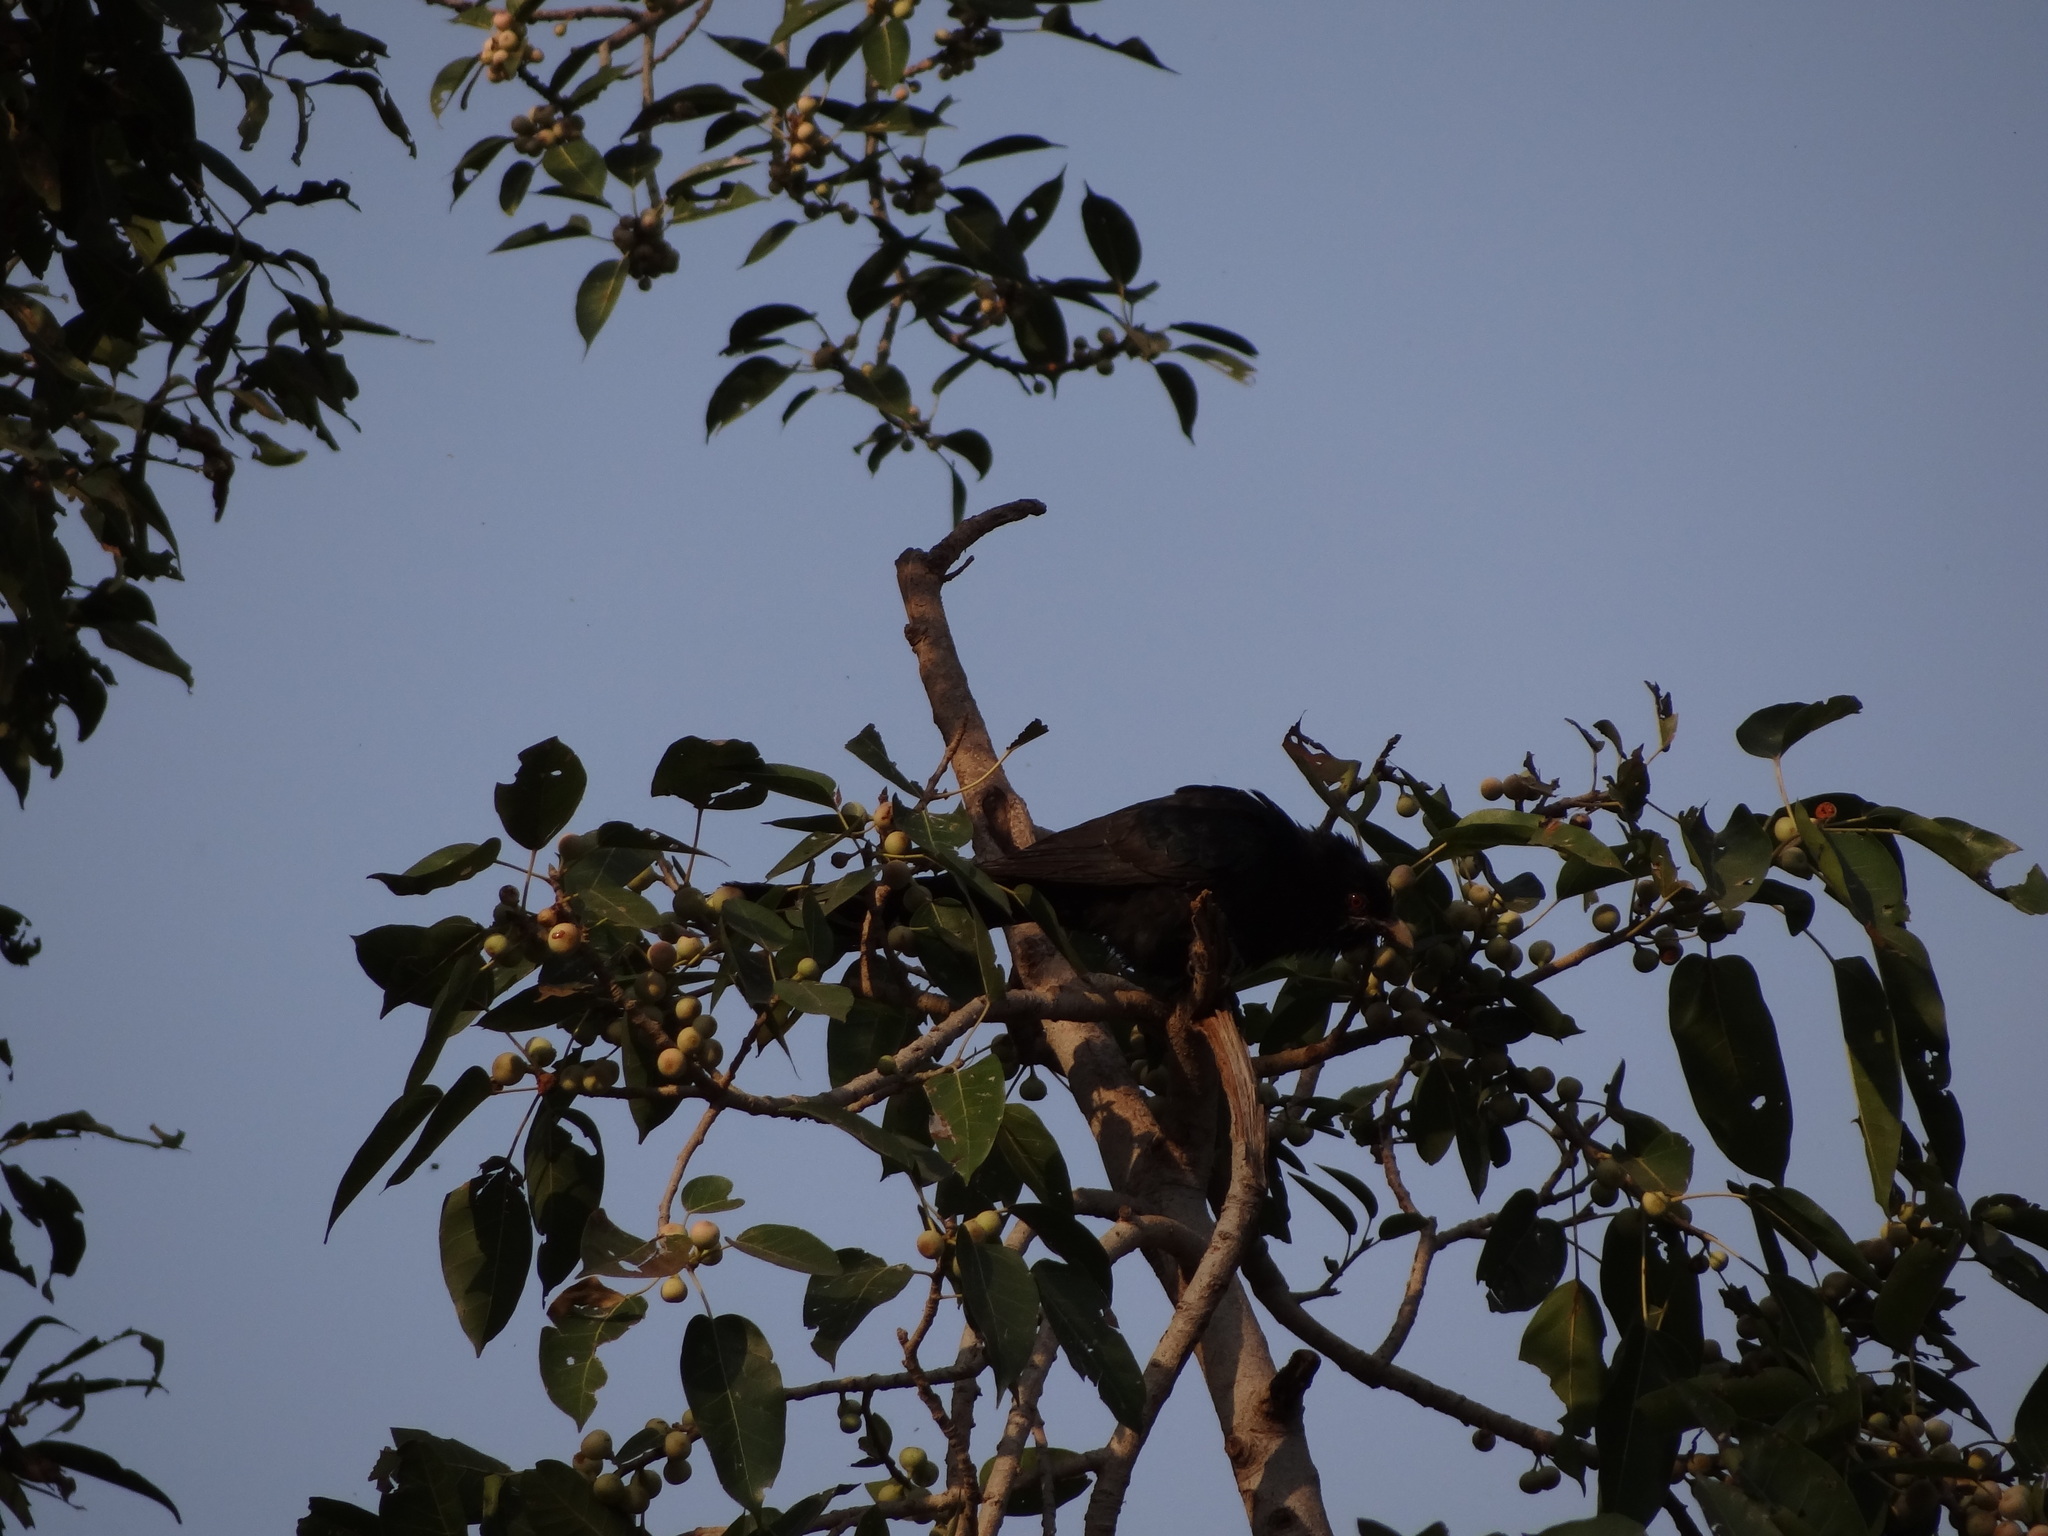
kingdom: Animalia
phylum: Chordata
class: Aves
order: Cuculiformes
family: Cuculidae
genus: Eudynamys
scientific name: Eudynamys scolopaceus
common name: Asian koel
